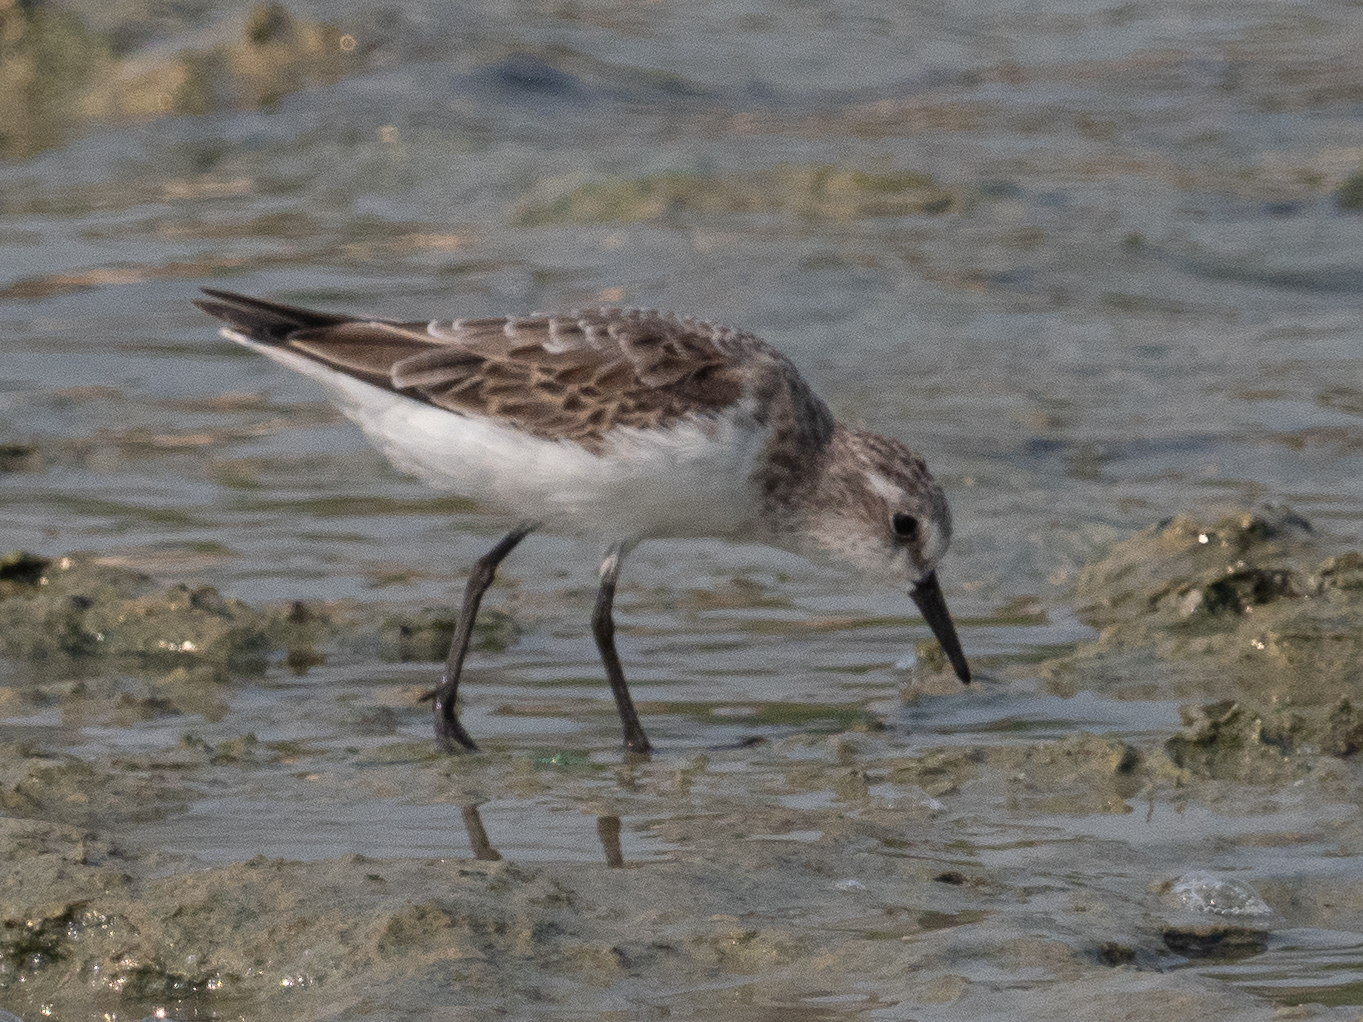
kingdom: Animalia
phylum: Chordata
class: Aves
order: Charadriiformes
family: Scolopacidae
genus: Calidris
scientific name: Calidris minuta
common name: Little stint
